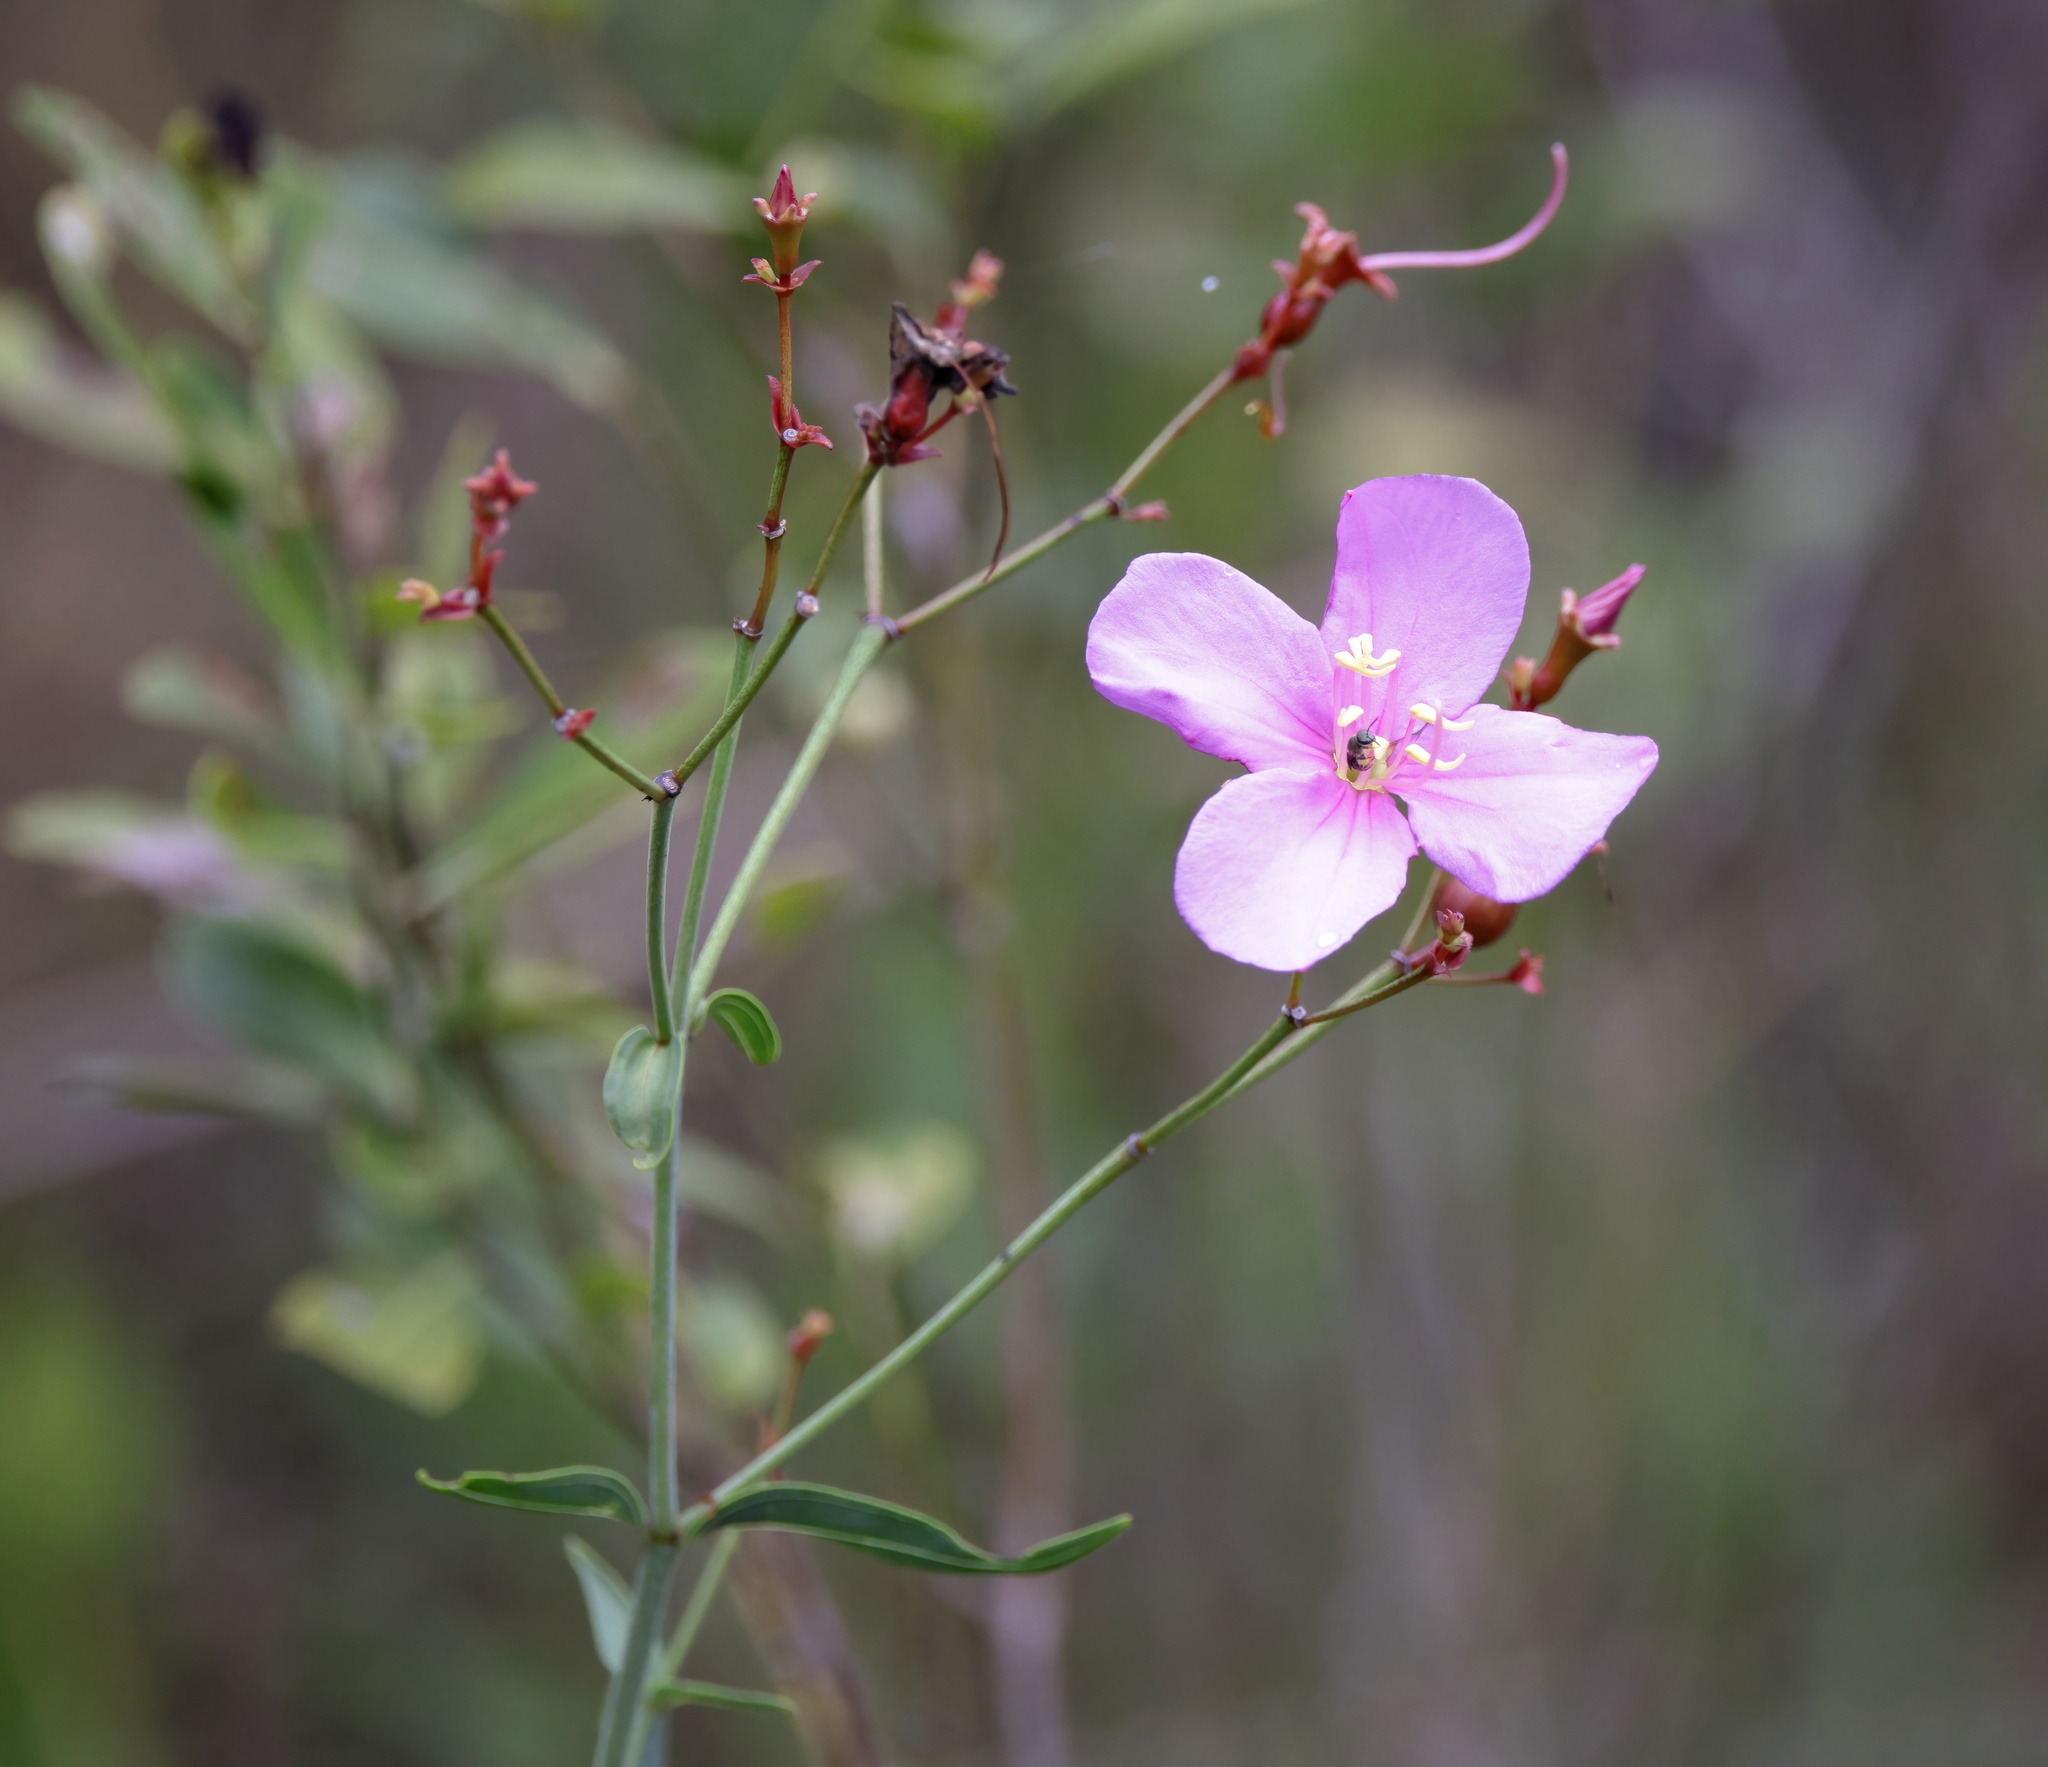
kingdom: Plantae
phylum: Tracheophyta
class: Magnoliopsida
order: Myrtales
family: Melastomataceae
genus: Rhexia
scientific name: Rhexia alifanus
